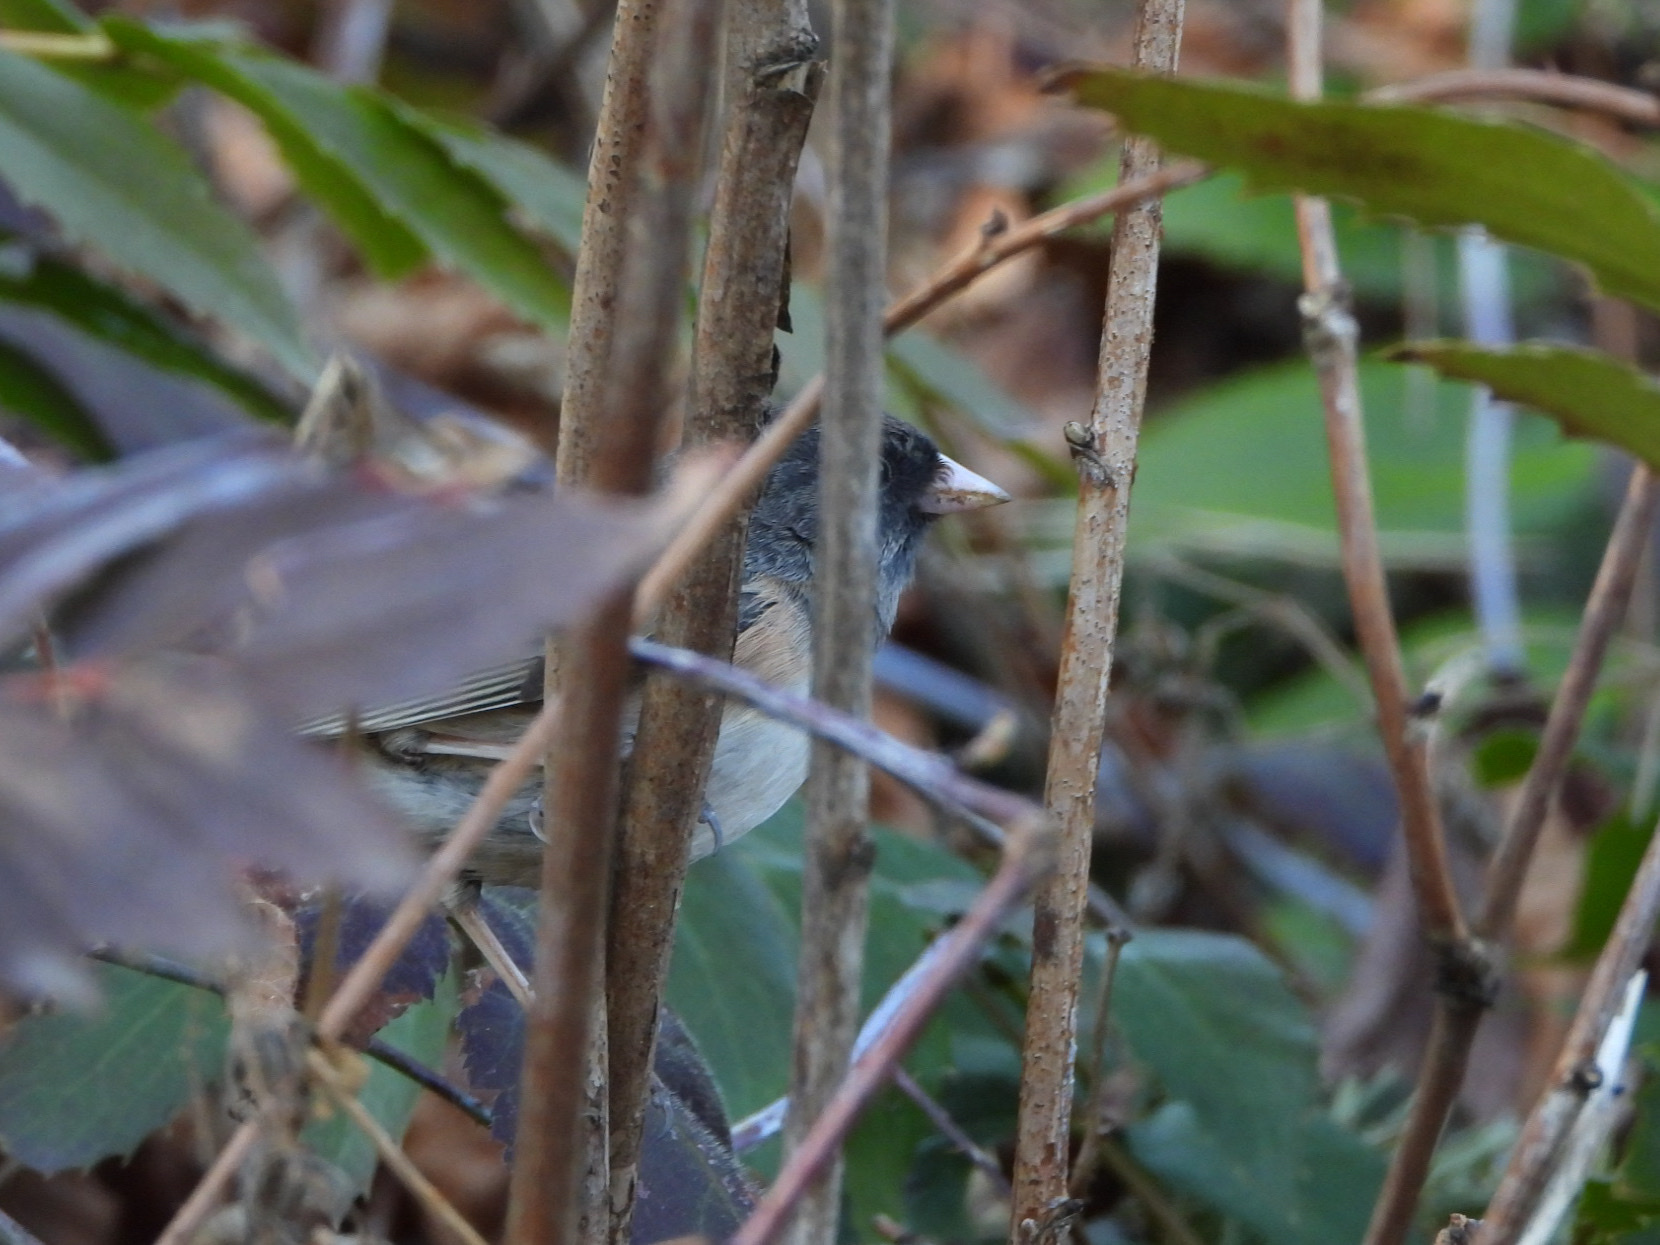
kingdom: Animalia
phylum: Chordata
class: Aves
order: Passeriformes
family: Passerellidae
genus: Junco
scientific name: Junco hyemalis
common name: Dark-eyed junco
